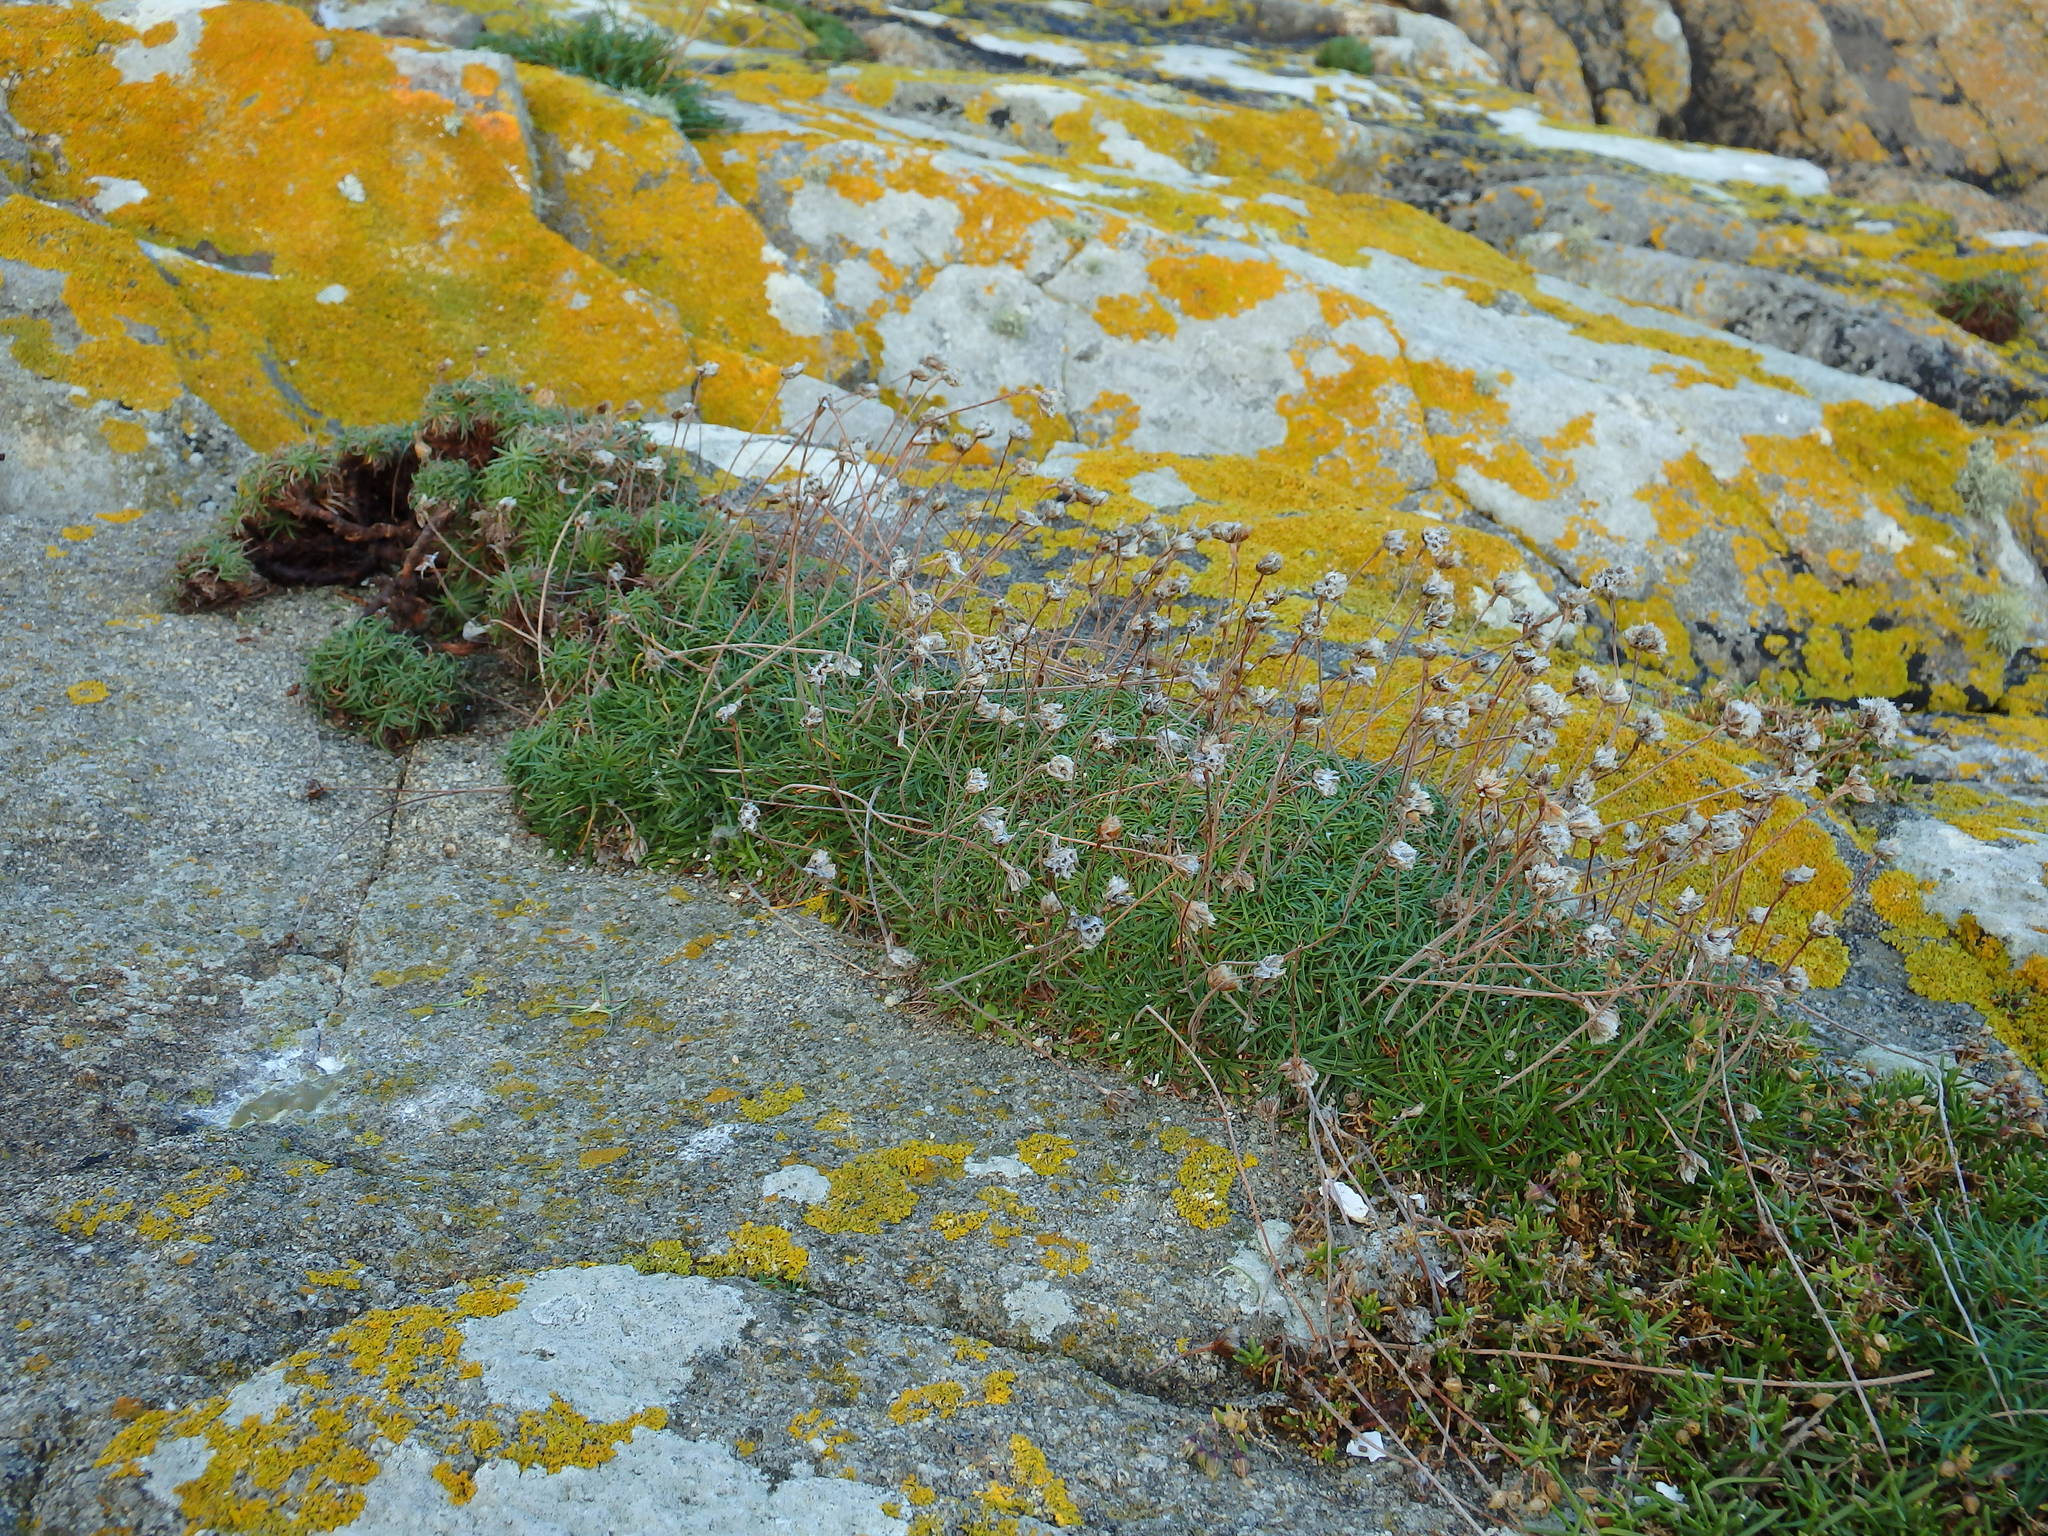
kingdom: Plantae
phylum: Tracheophyta
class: Magnoliopsida
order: Caryophyllales
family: Plumbaginaceae
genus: Armeria
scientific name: Armeria maritima
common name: Thrift
